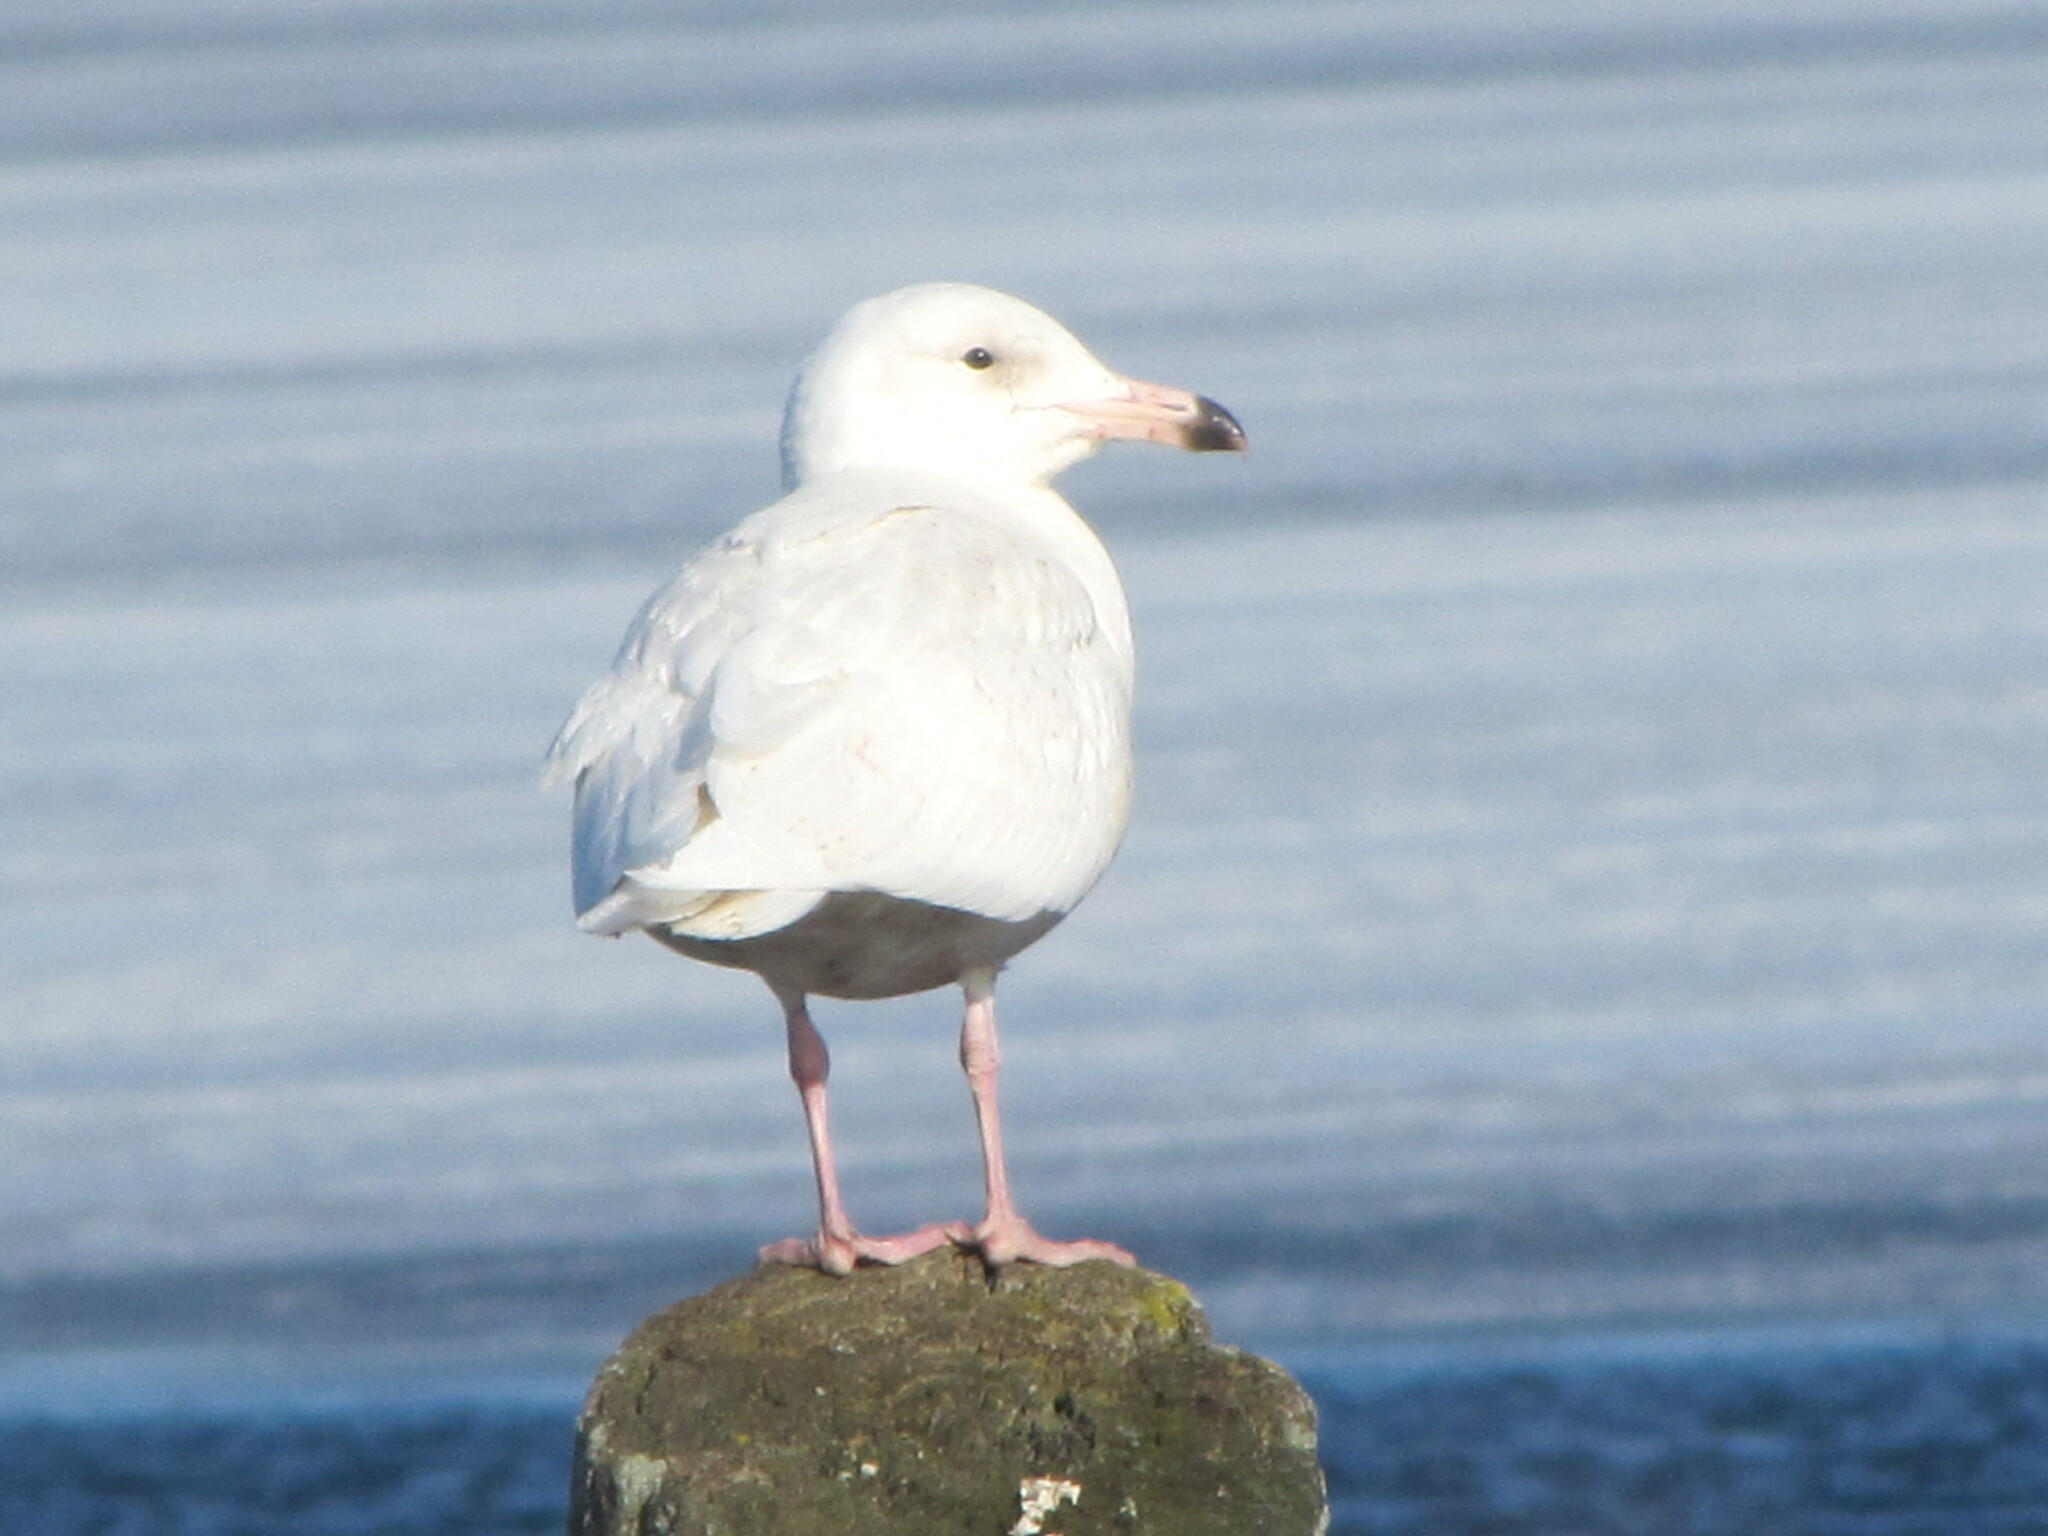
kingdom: Animalia
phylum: Chordata
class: Aves
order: Charadriiformes
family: Laridae
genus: Larus
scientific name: Larus hyperboreus
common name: Glaucous gull
